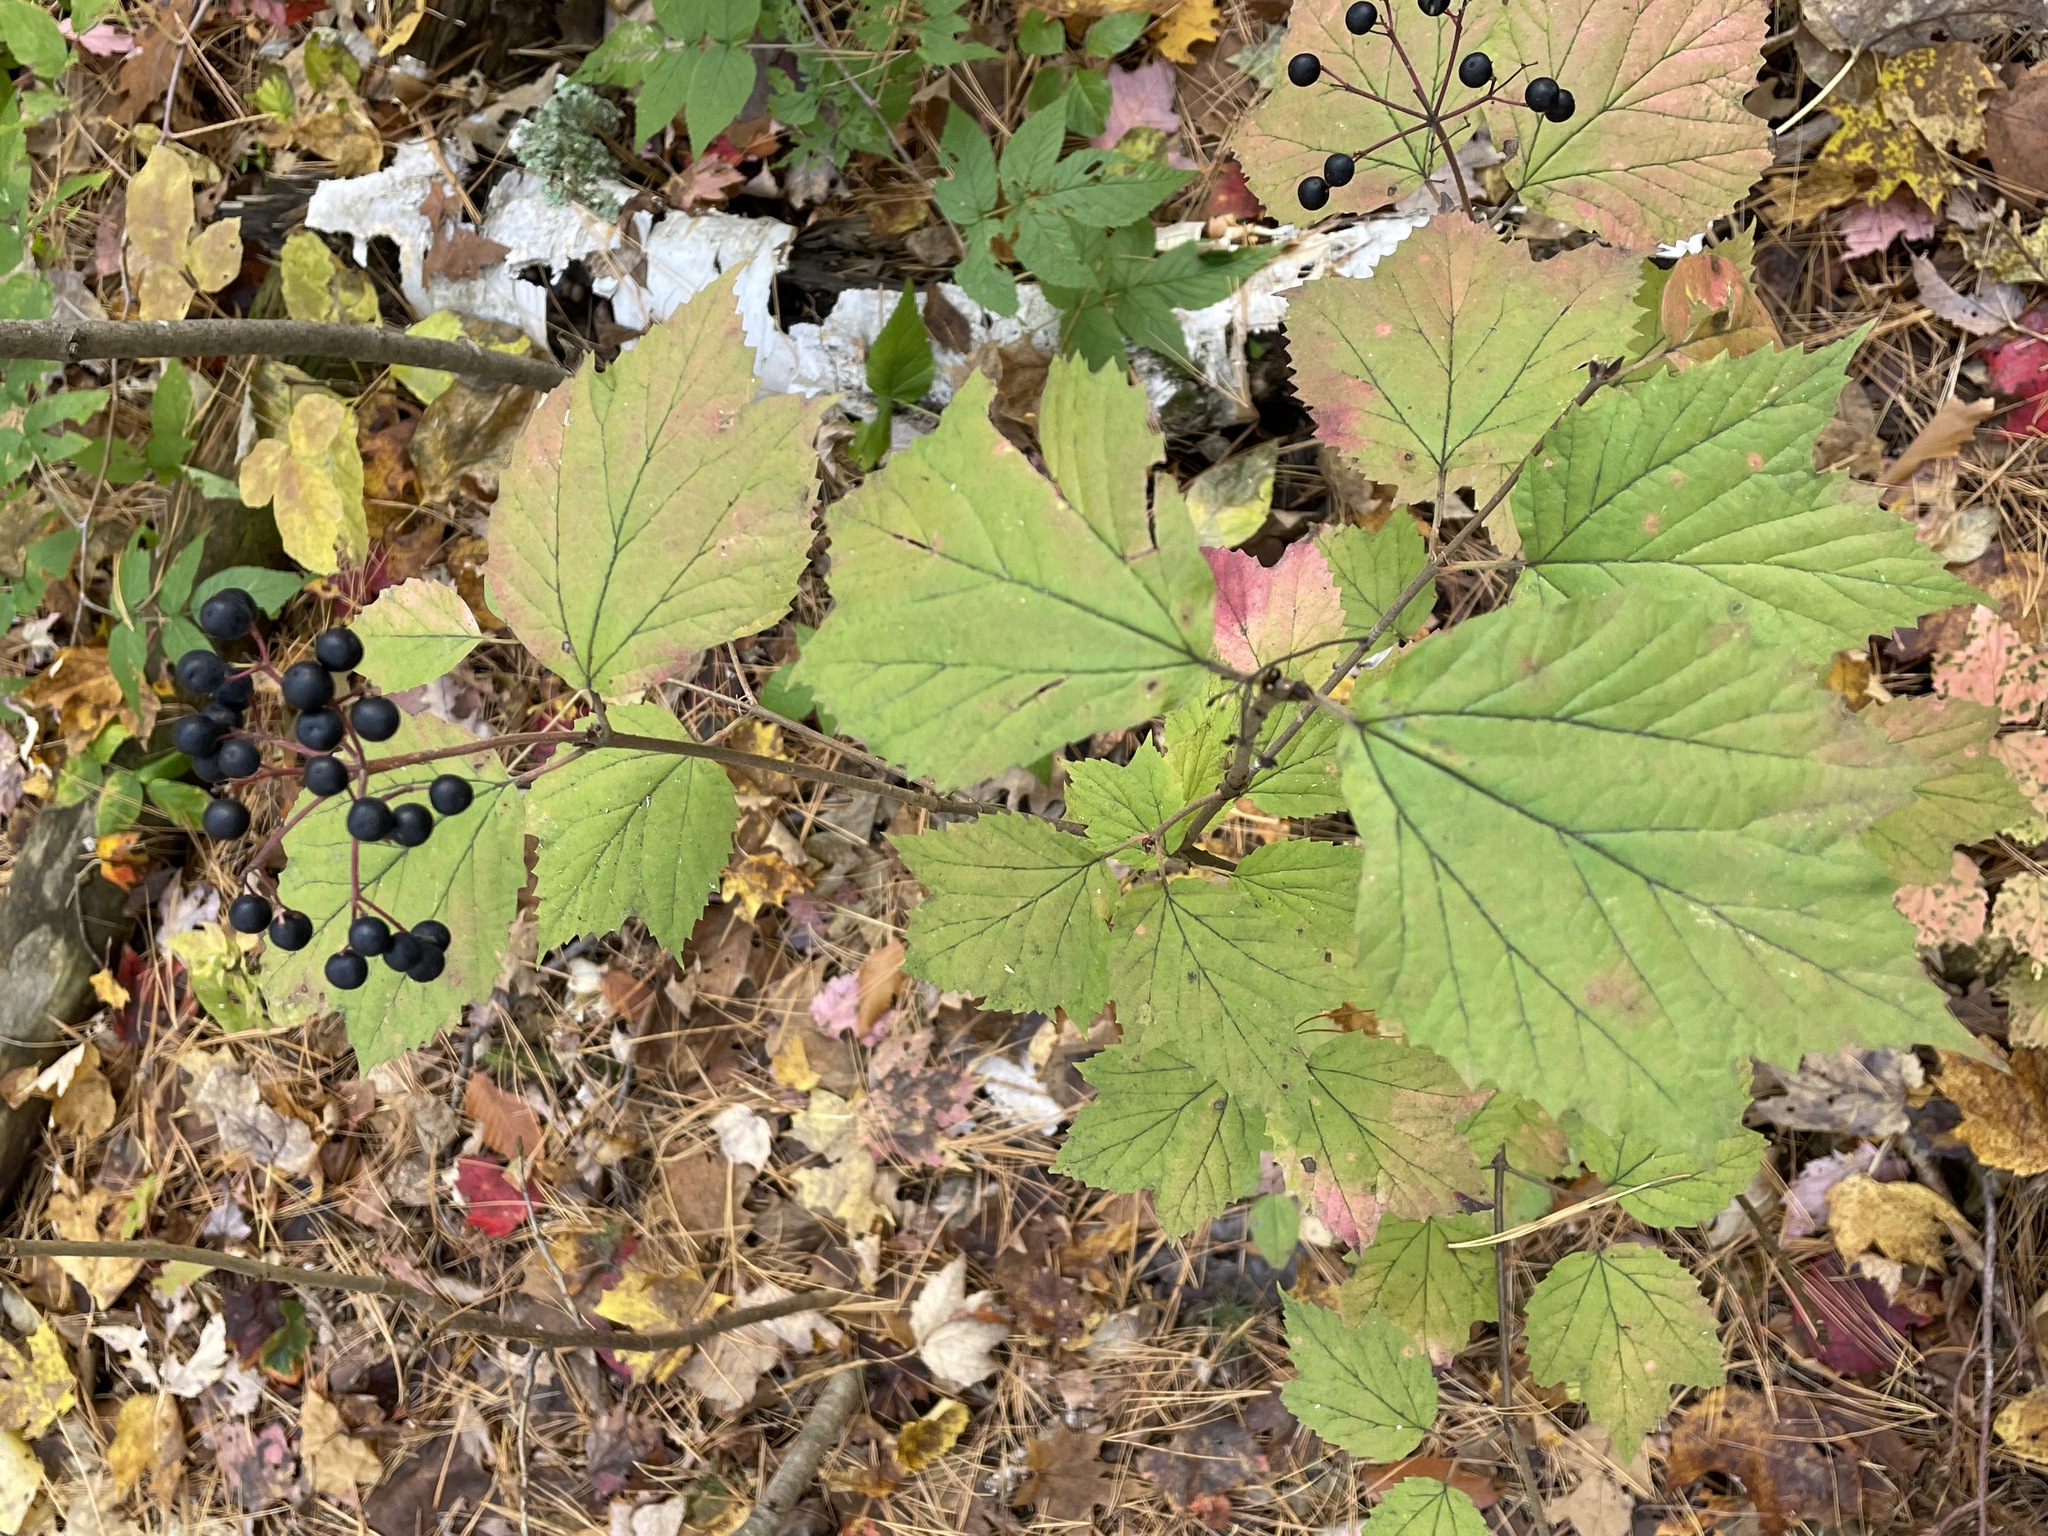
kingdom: Plantae
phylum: Tracheophyta
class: Magnoliopsida
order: Dipsacales
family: Viburnaceae
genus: Viburnum
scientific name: Viburnum acerifolium
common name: Dockmackie
